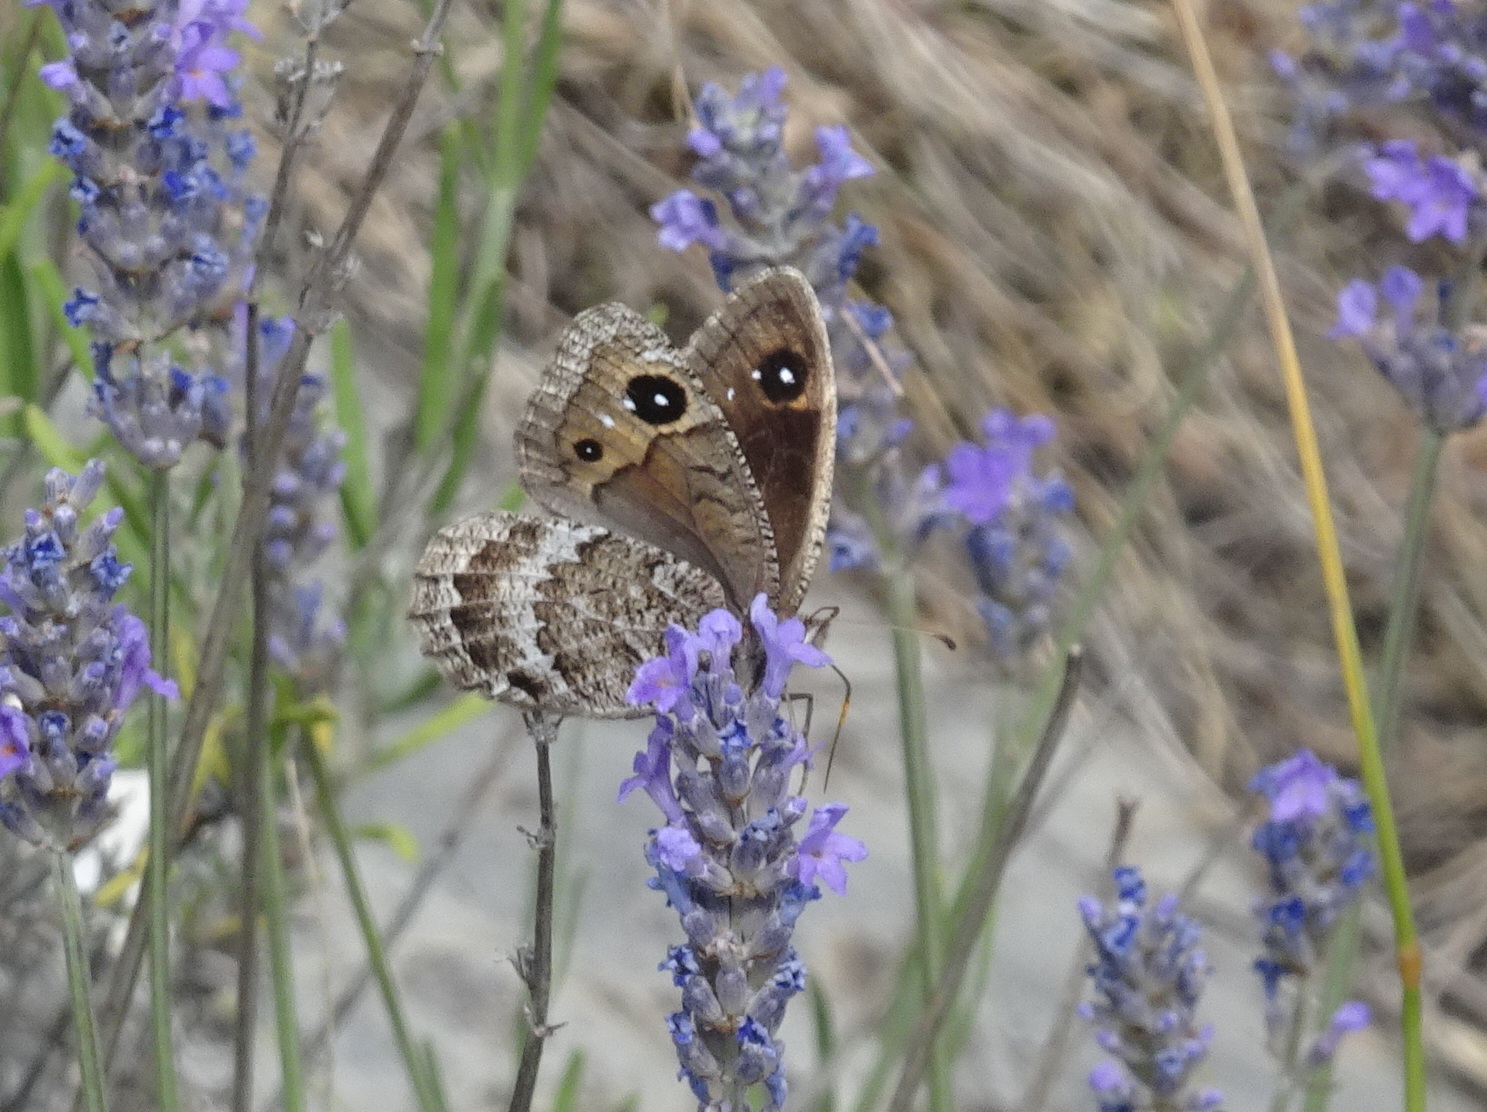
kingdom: Animalia
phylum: Arthropoda
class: Insecta
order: Lepidoptera
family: Nymphalidae
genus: Satyrus
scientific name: Satyrus actaea
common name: Black satyr
